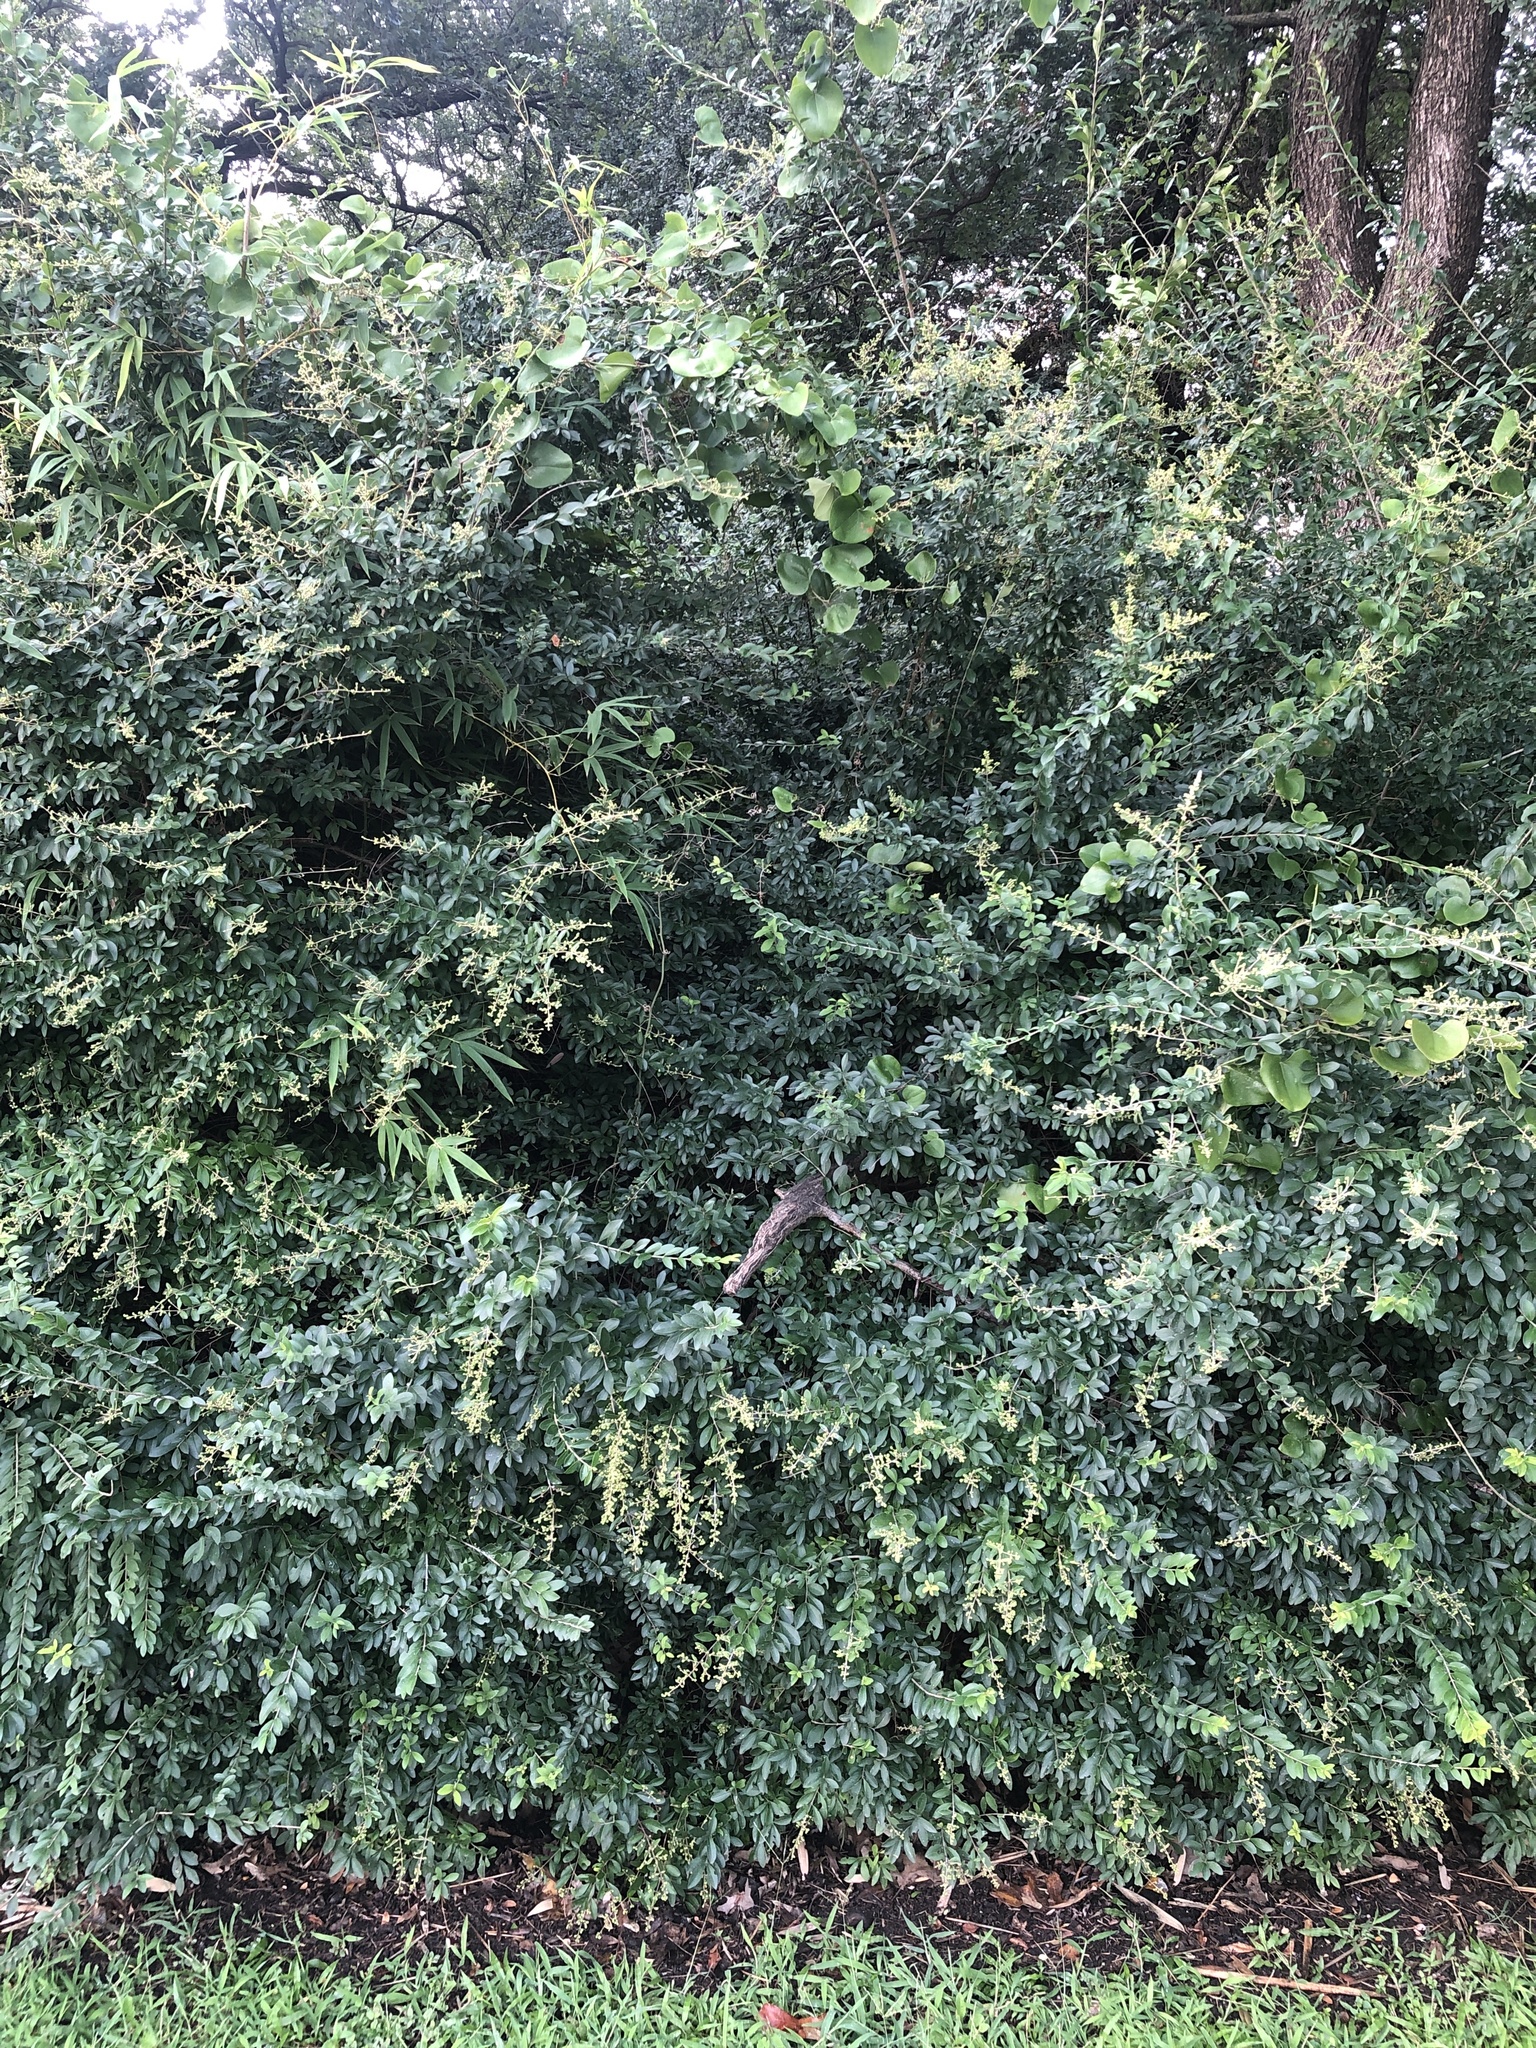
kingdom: Plantae
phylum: Tracheophyta
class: Magnoliopsida
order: Lamiales
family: Oleaceae
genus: Ligustrum
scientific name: Ligustrum quihoui
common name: Waxyleaf privet
